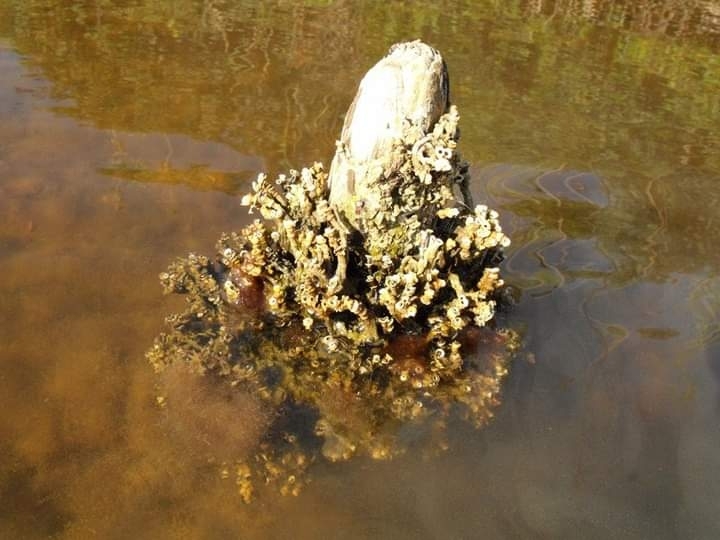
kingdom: Animalia
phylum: Annelida
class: Polychaeta
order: Sabellida
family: Serpulidae
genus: Ficopomatus
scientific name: Ficopomatus enigmaticus
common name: Australian tubeworm
